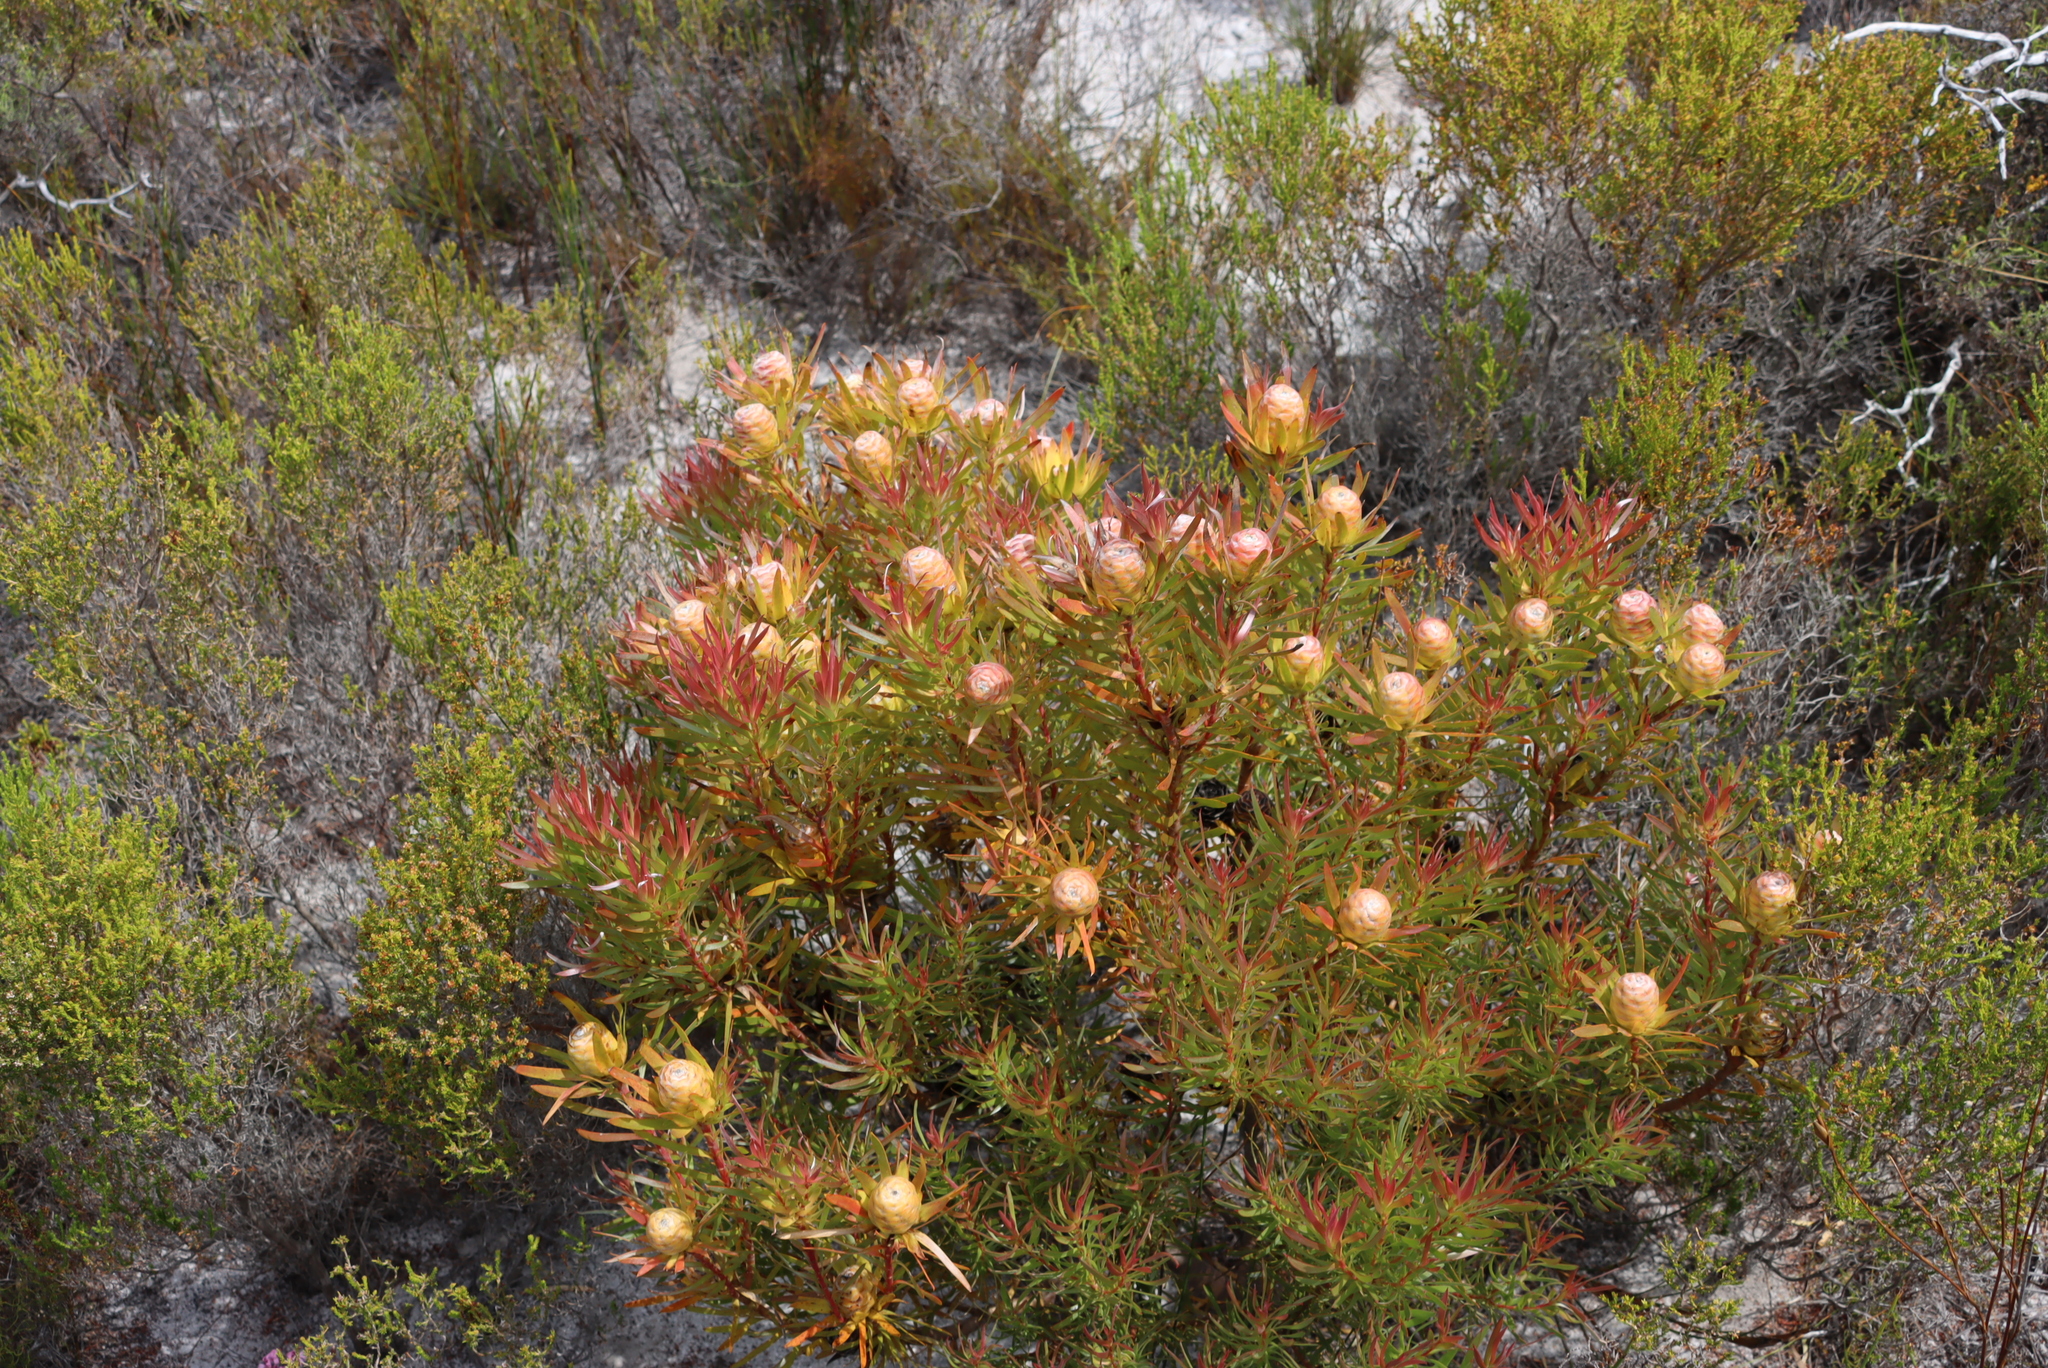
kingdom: Plantae
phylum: Tracheophyta
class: Magnoliopsida
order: Proteales
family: Proteaceae
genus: Leucadendron
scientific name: Leucadendron xanthoconus
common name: Sickle-leaf conebush
